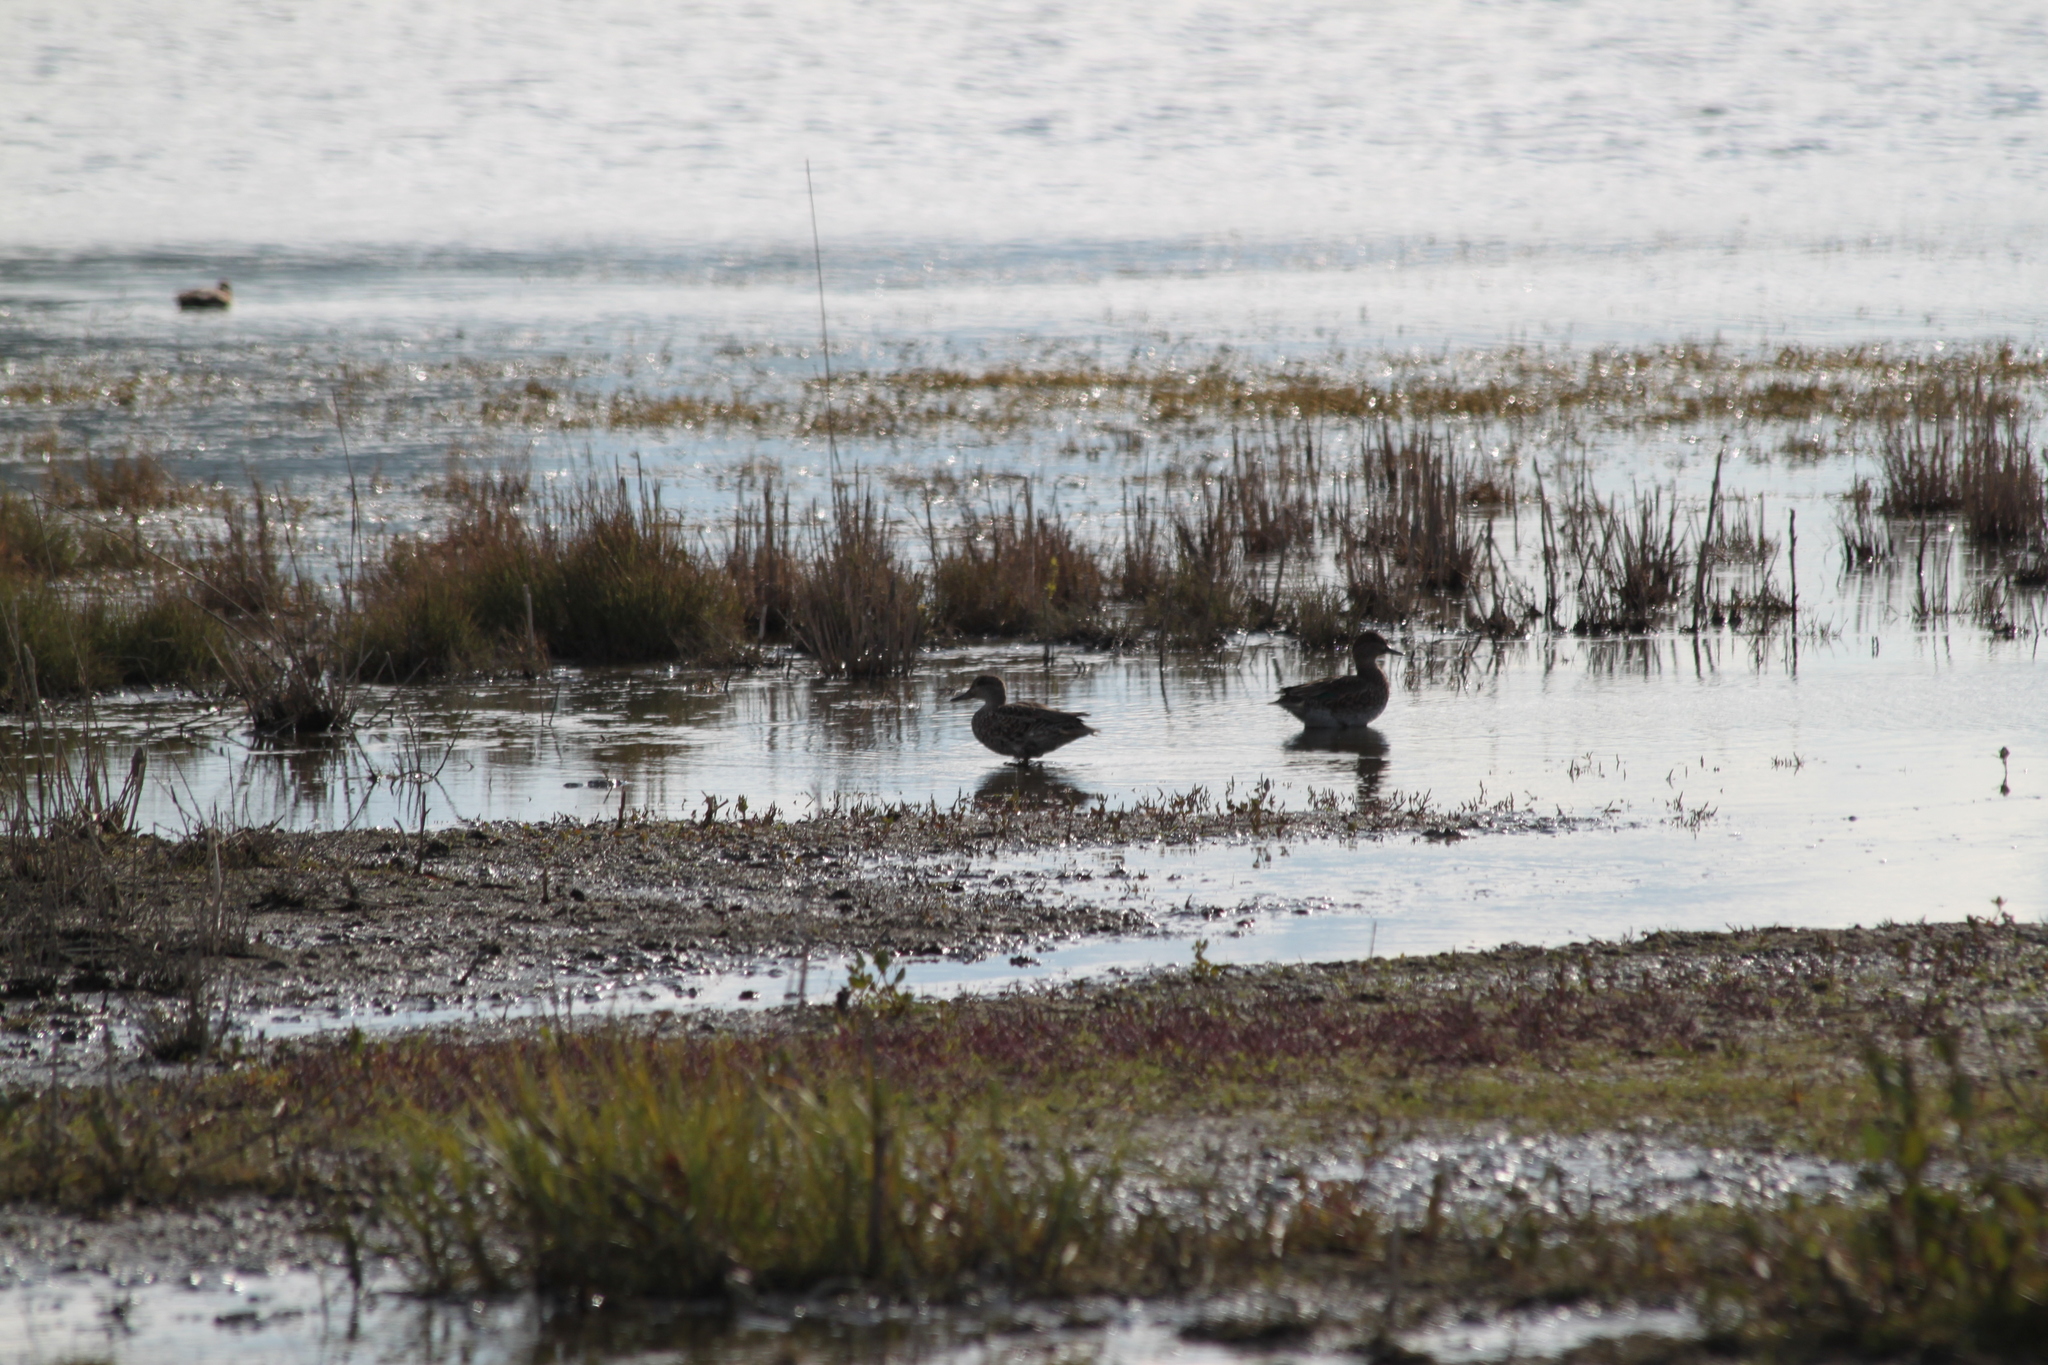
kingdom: Animalia
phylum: Chordata
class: Aves
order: Anseriformes
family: Anatidae
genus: Anas
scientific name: Anas crecca
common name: Eurasian teal
